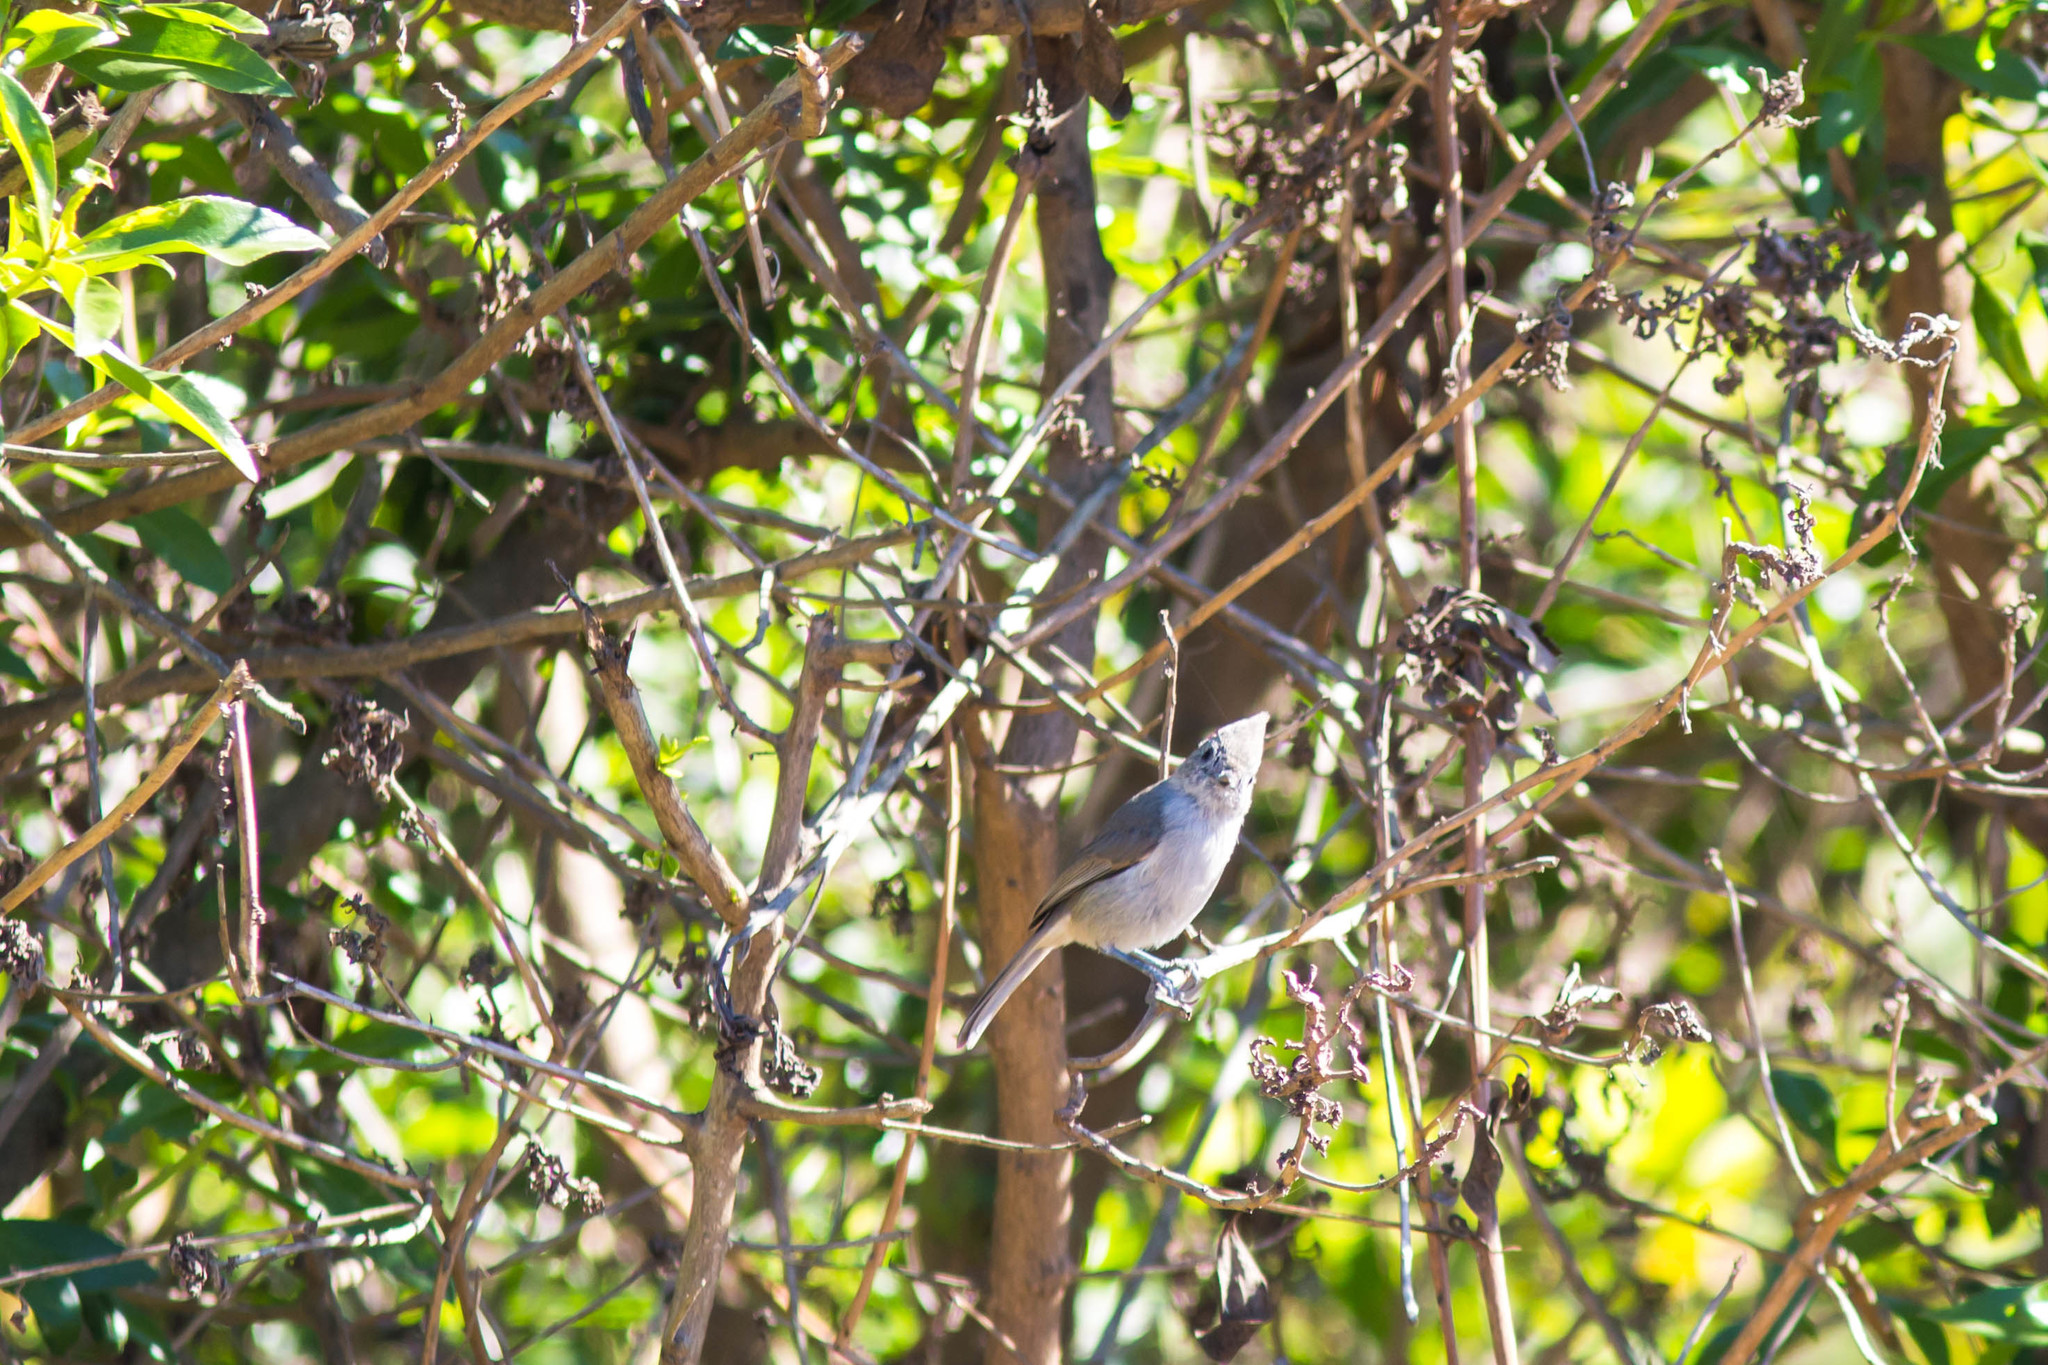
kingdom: Animalia
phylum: Chordata
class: Aves
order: Passeriformes
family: Paridae
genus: Baeolophus
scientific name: Baeolophus inornatus
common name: Oak titmouse
